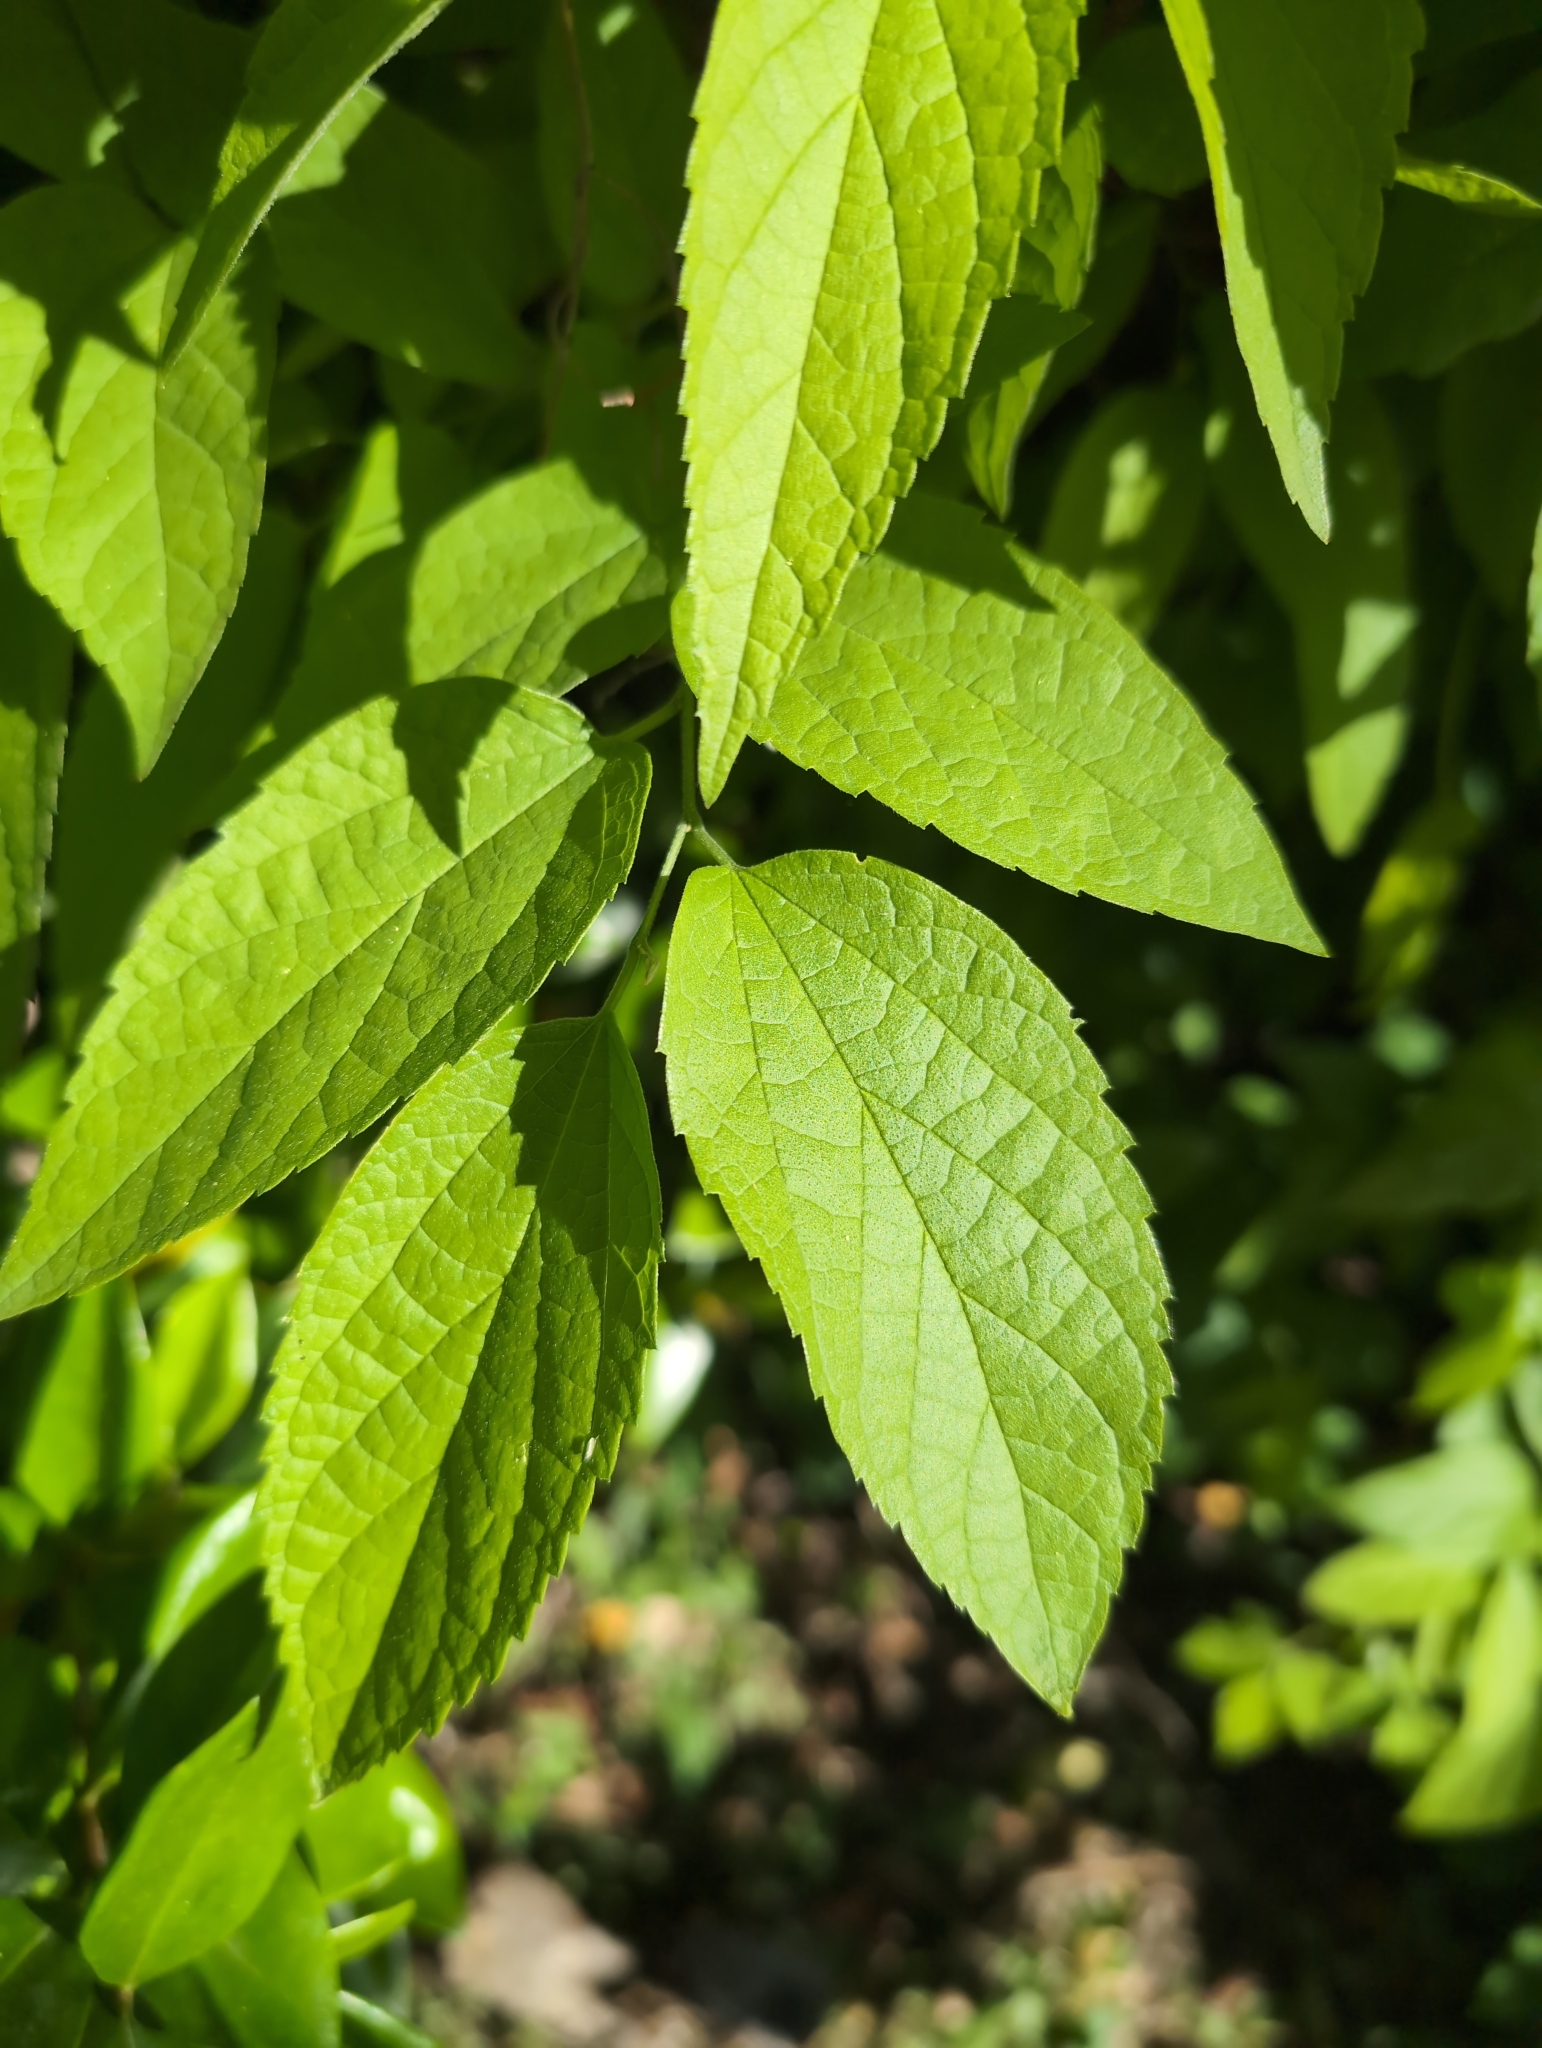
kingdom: Plantae
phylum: Tracheophyta
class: Magnoliopsida
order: Rosales
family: Cannabaceae
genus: Celtis
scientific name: Celtis laevigata
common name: Sugarberry
